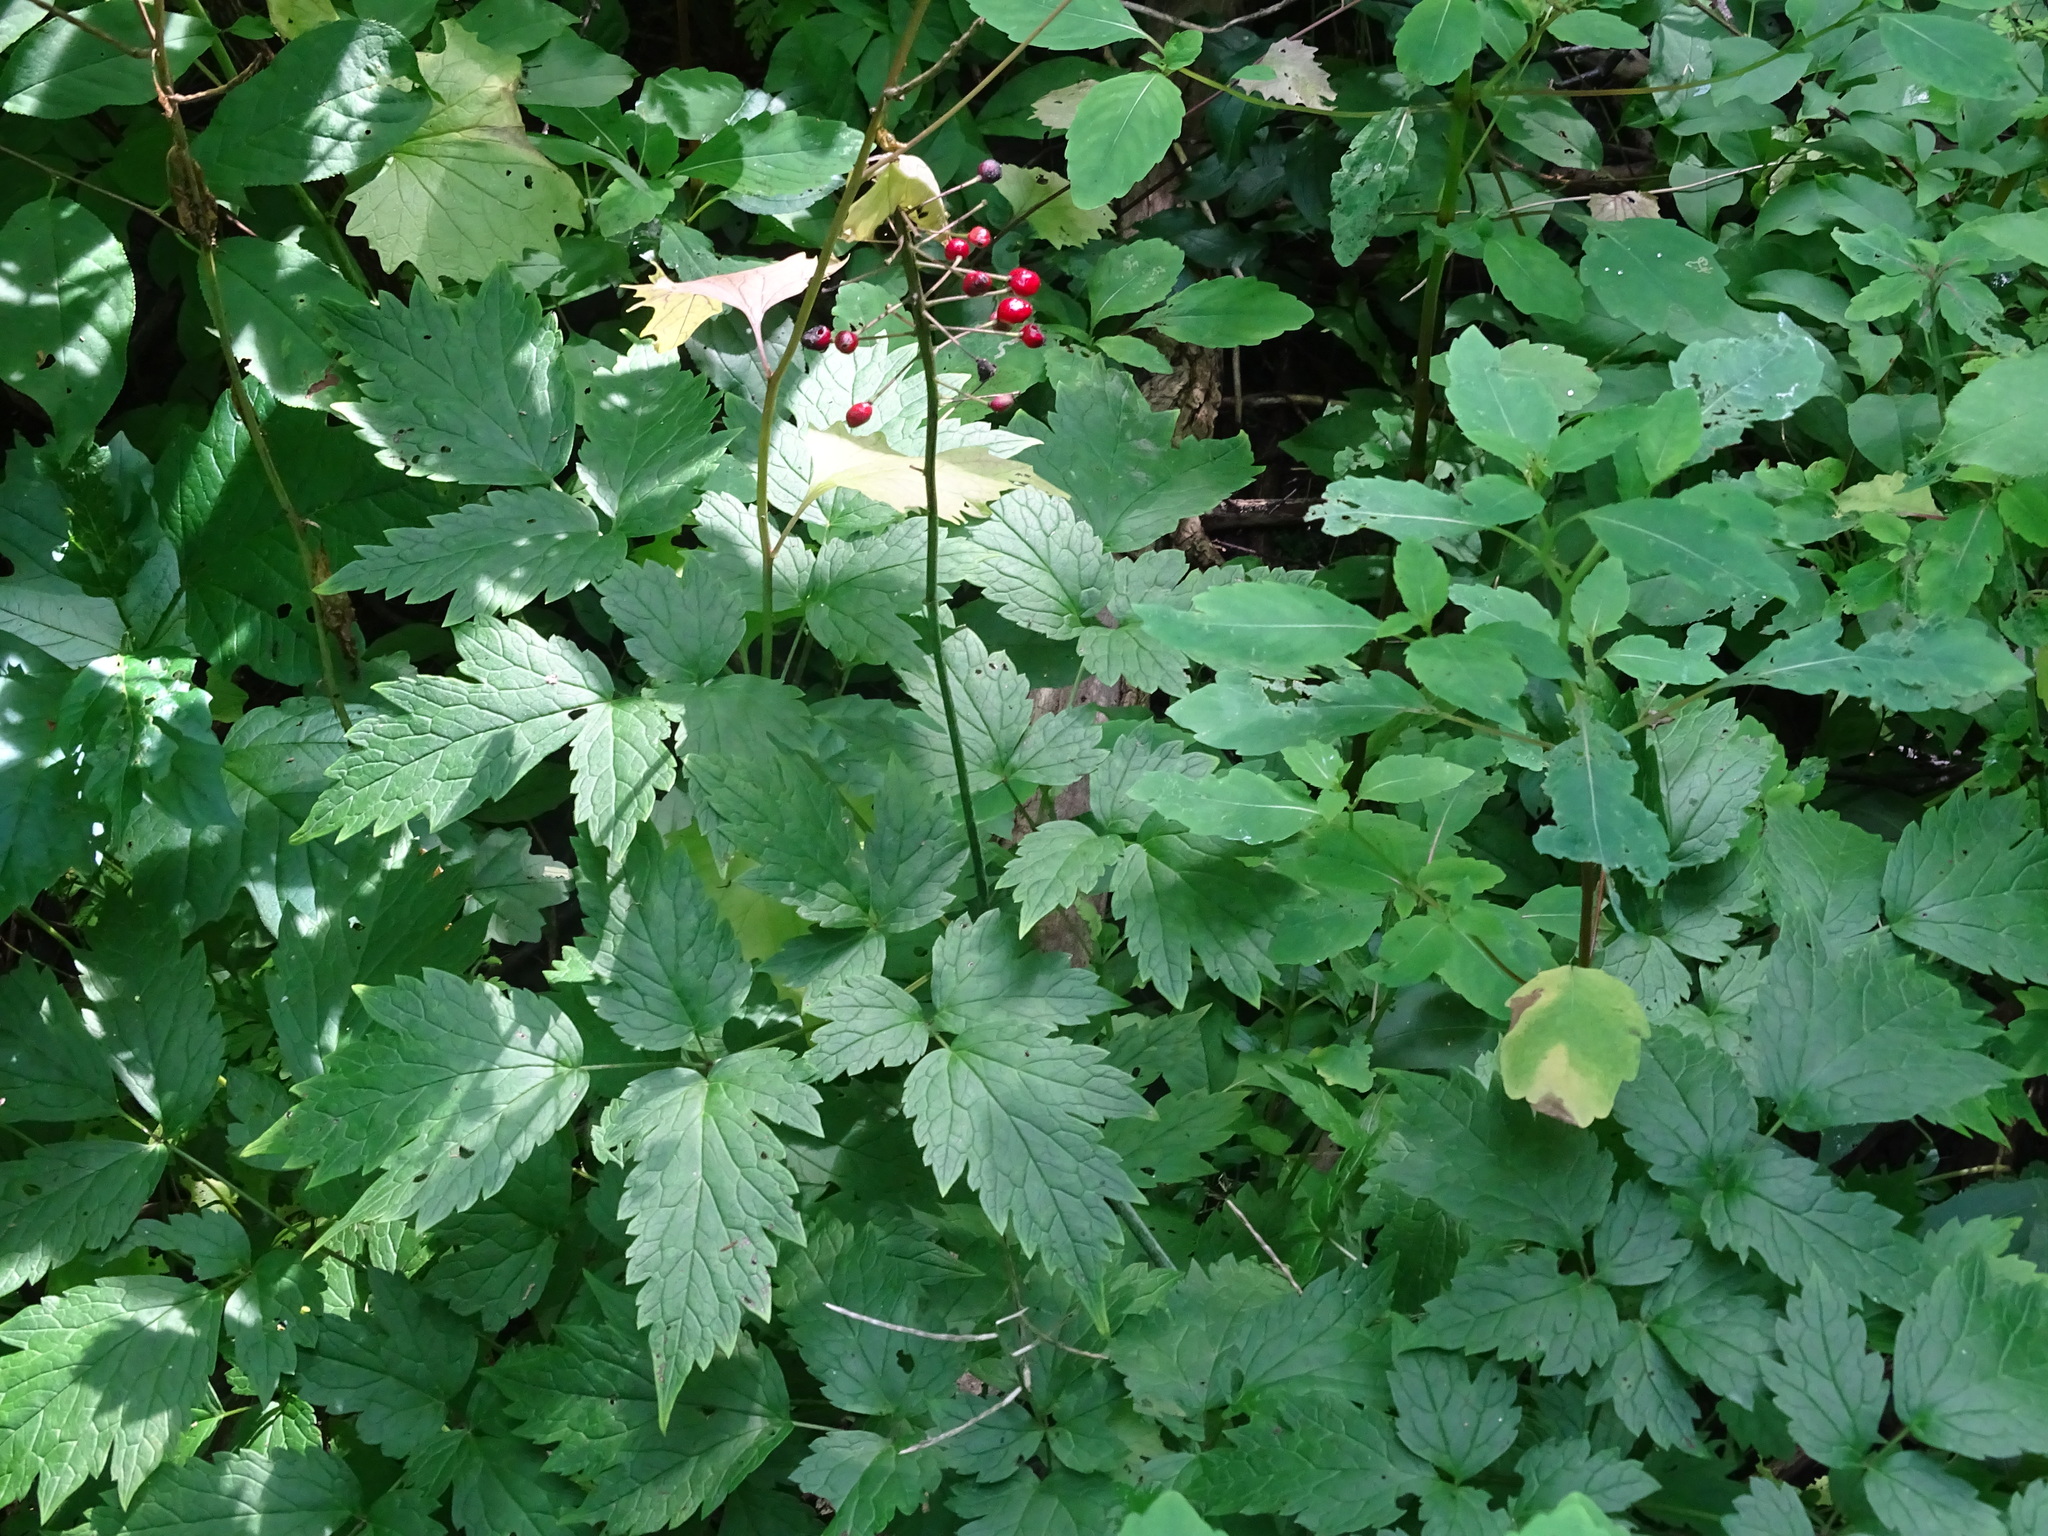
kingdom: Plantae
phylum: Tracheophyta
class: Magnoliopsida
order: Ranunculales
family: Ranunculaceae
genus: Actaea
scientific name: Actaea rubra
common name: Red baneberry
